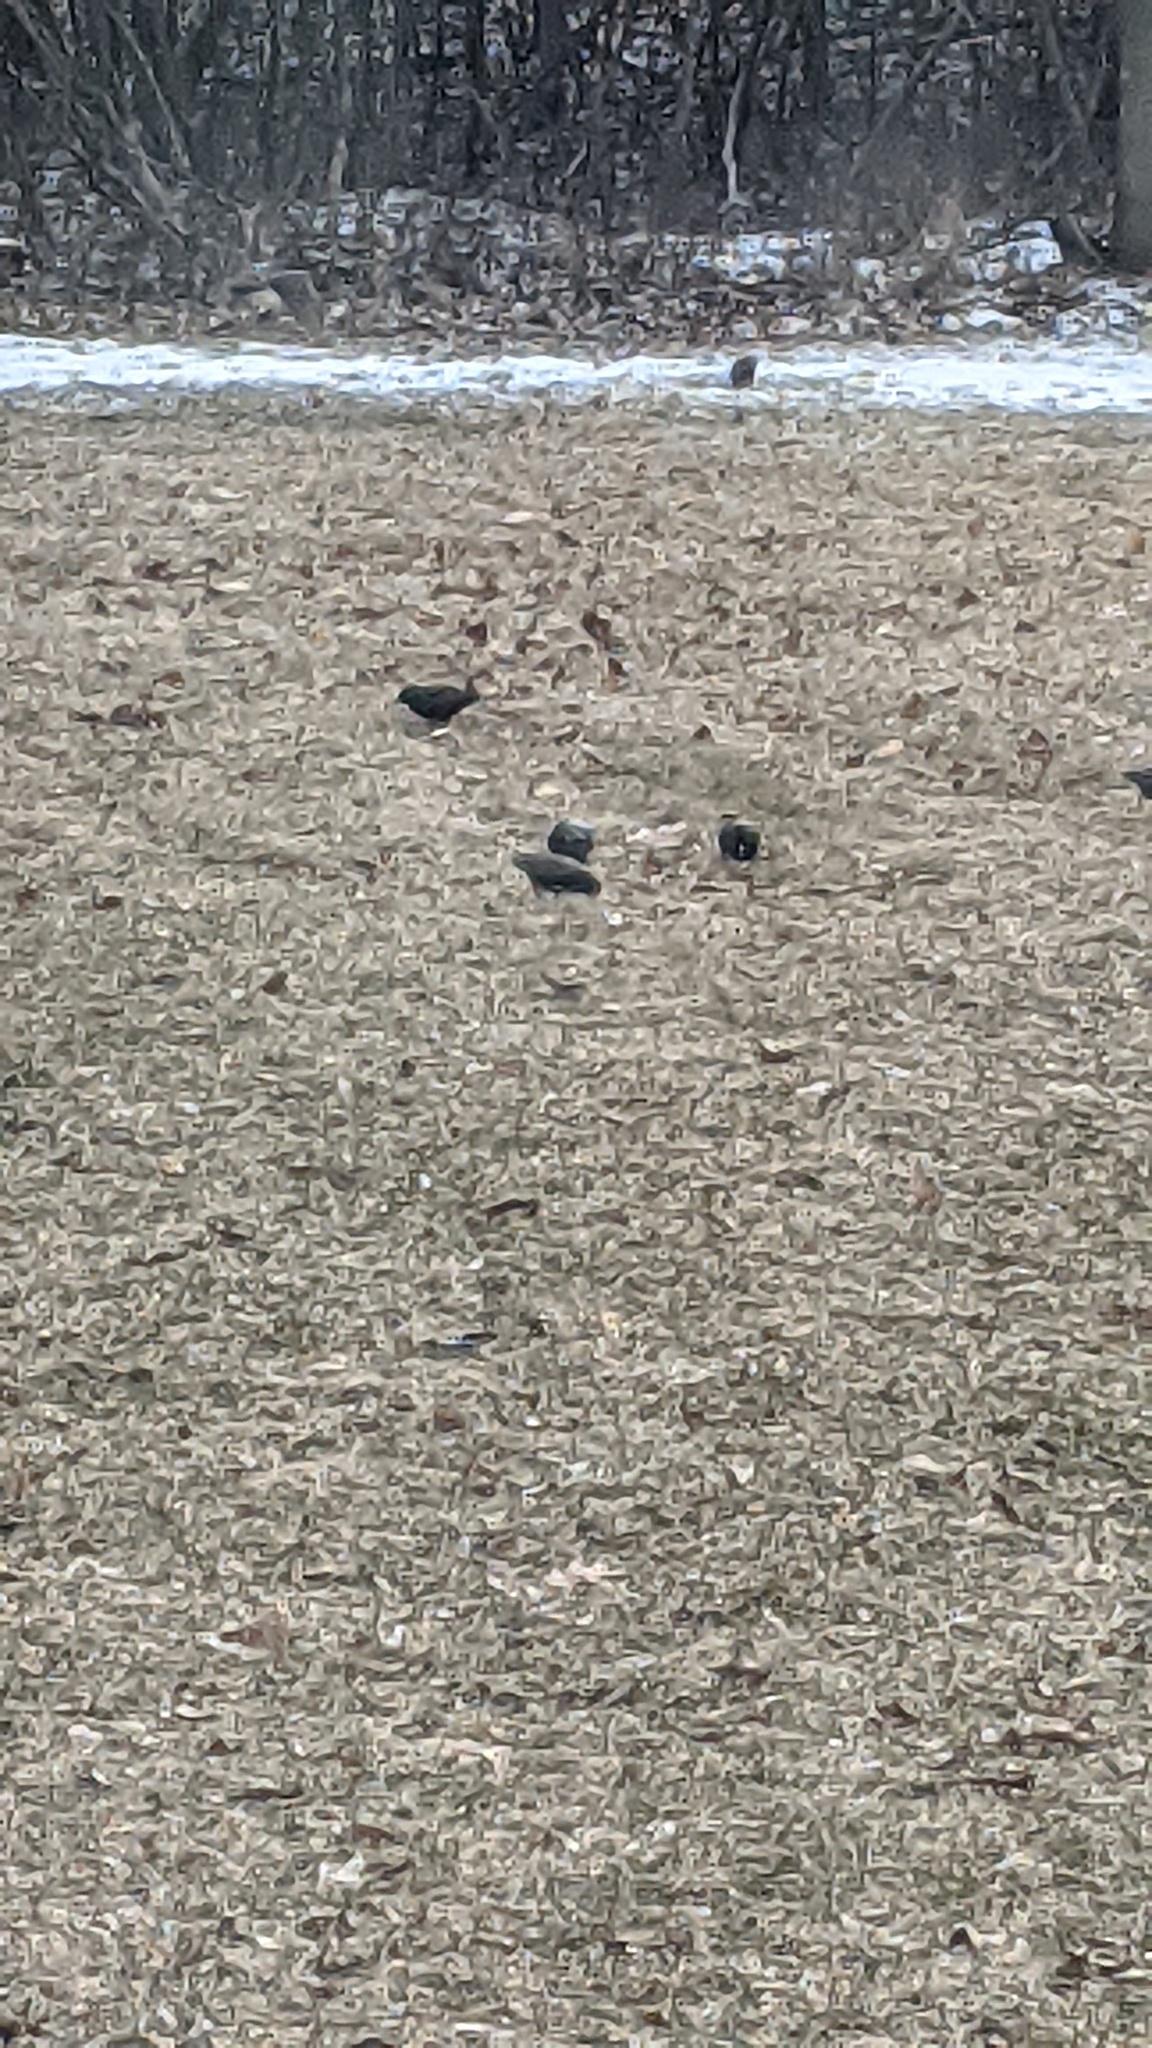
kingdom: Animalia
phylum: Chordata
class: Aves
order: Passeriformes
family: Sturnidae
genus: Sturnus
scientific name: Sturnus vulgaris
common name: Common starling
